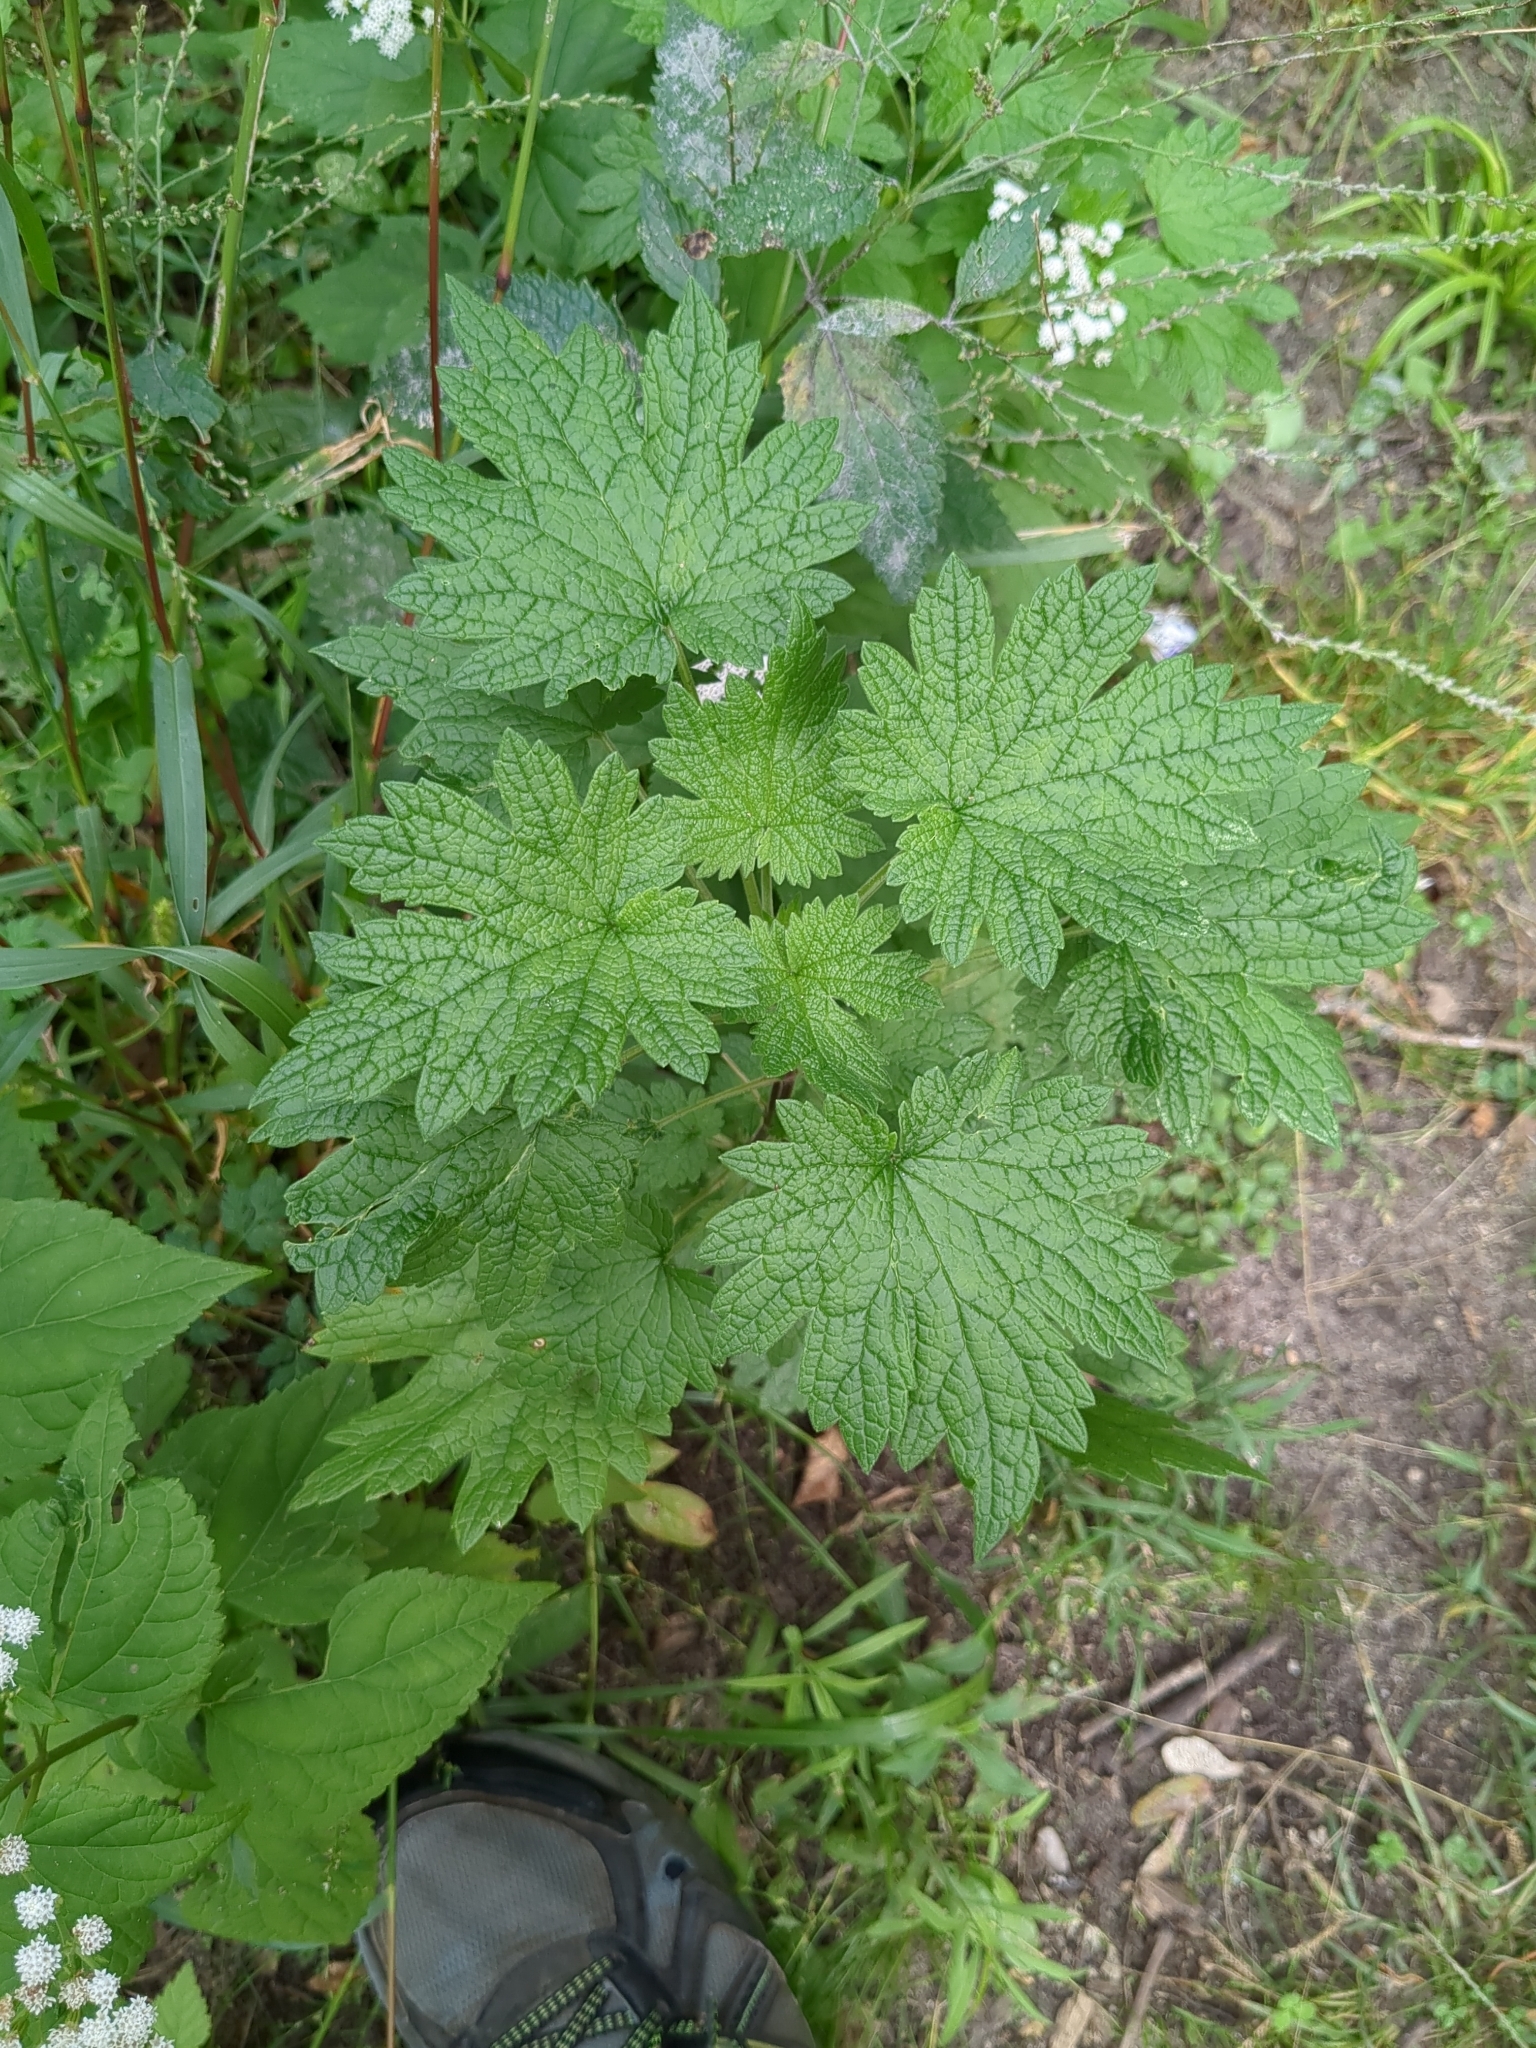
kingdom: Plantae
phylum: Tracheophyta
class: Magnoliopsida
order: Lamiales
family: Lamiaceae
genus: Leonurus
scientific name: Leonurus cardiaca
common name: Motherwort
